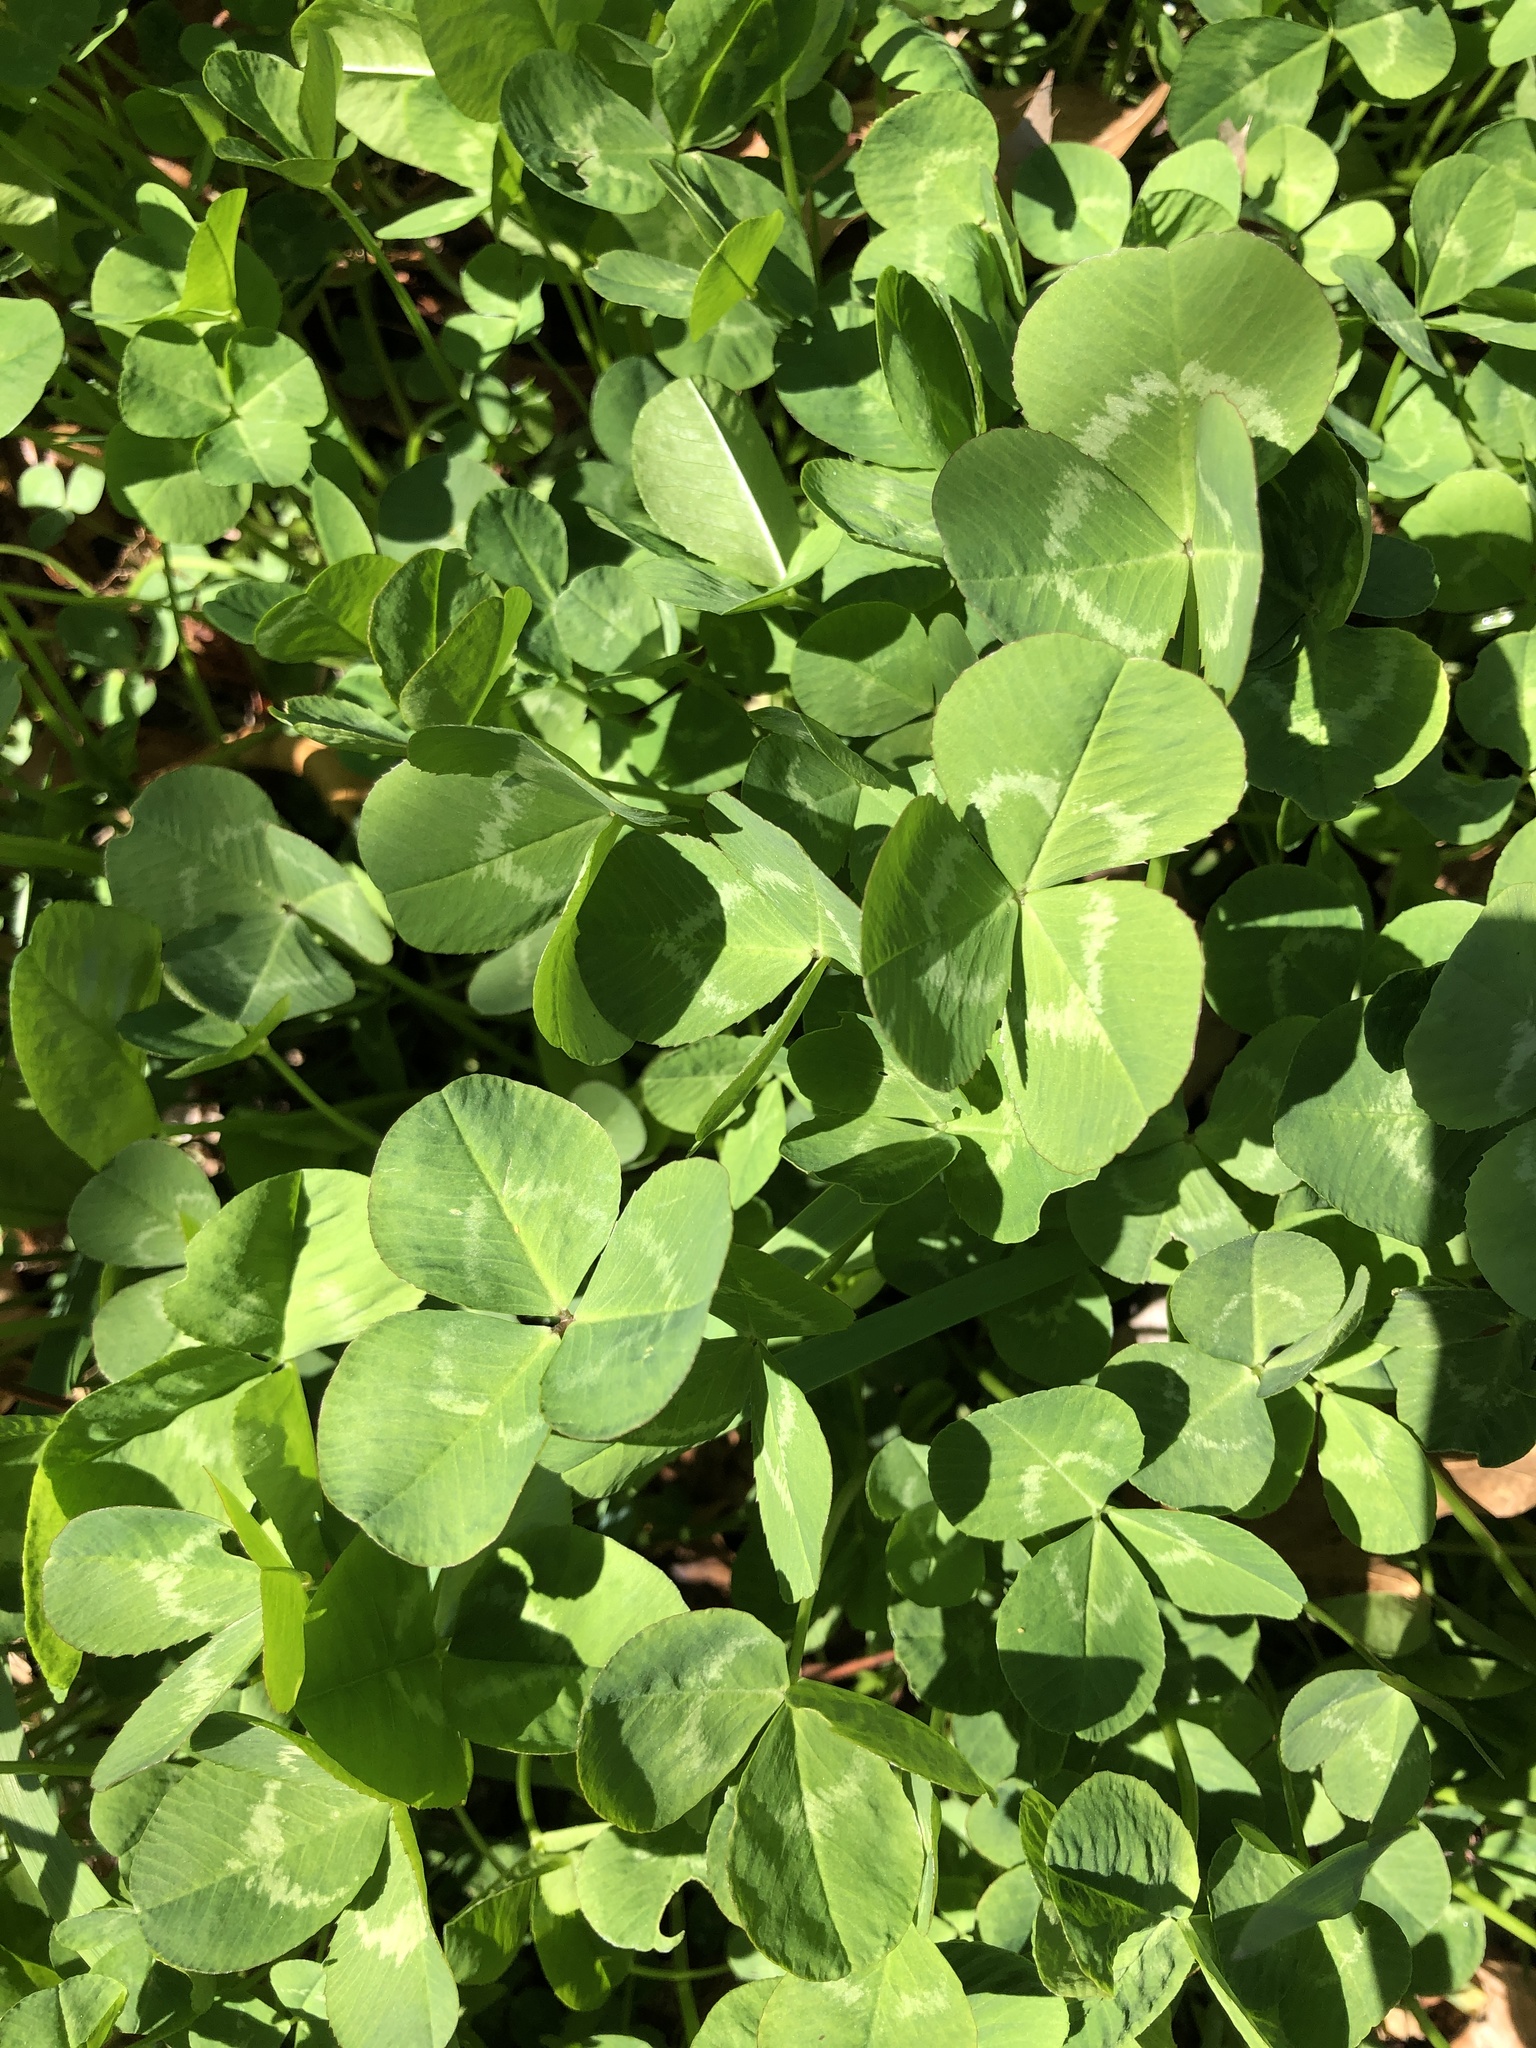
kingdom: Plantae
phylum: Tracheophyta
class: Magnoliopsida
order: Fabales
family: Fabaceae
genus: Trifolium
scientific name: Trifolium repens
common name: White clover
